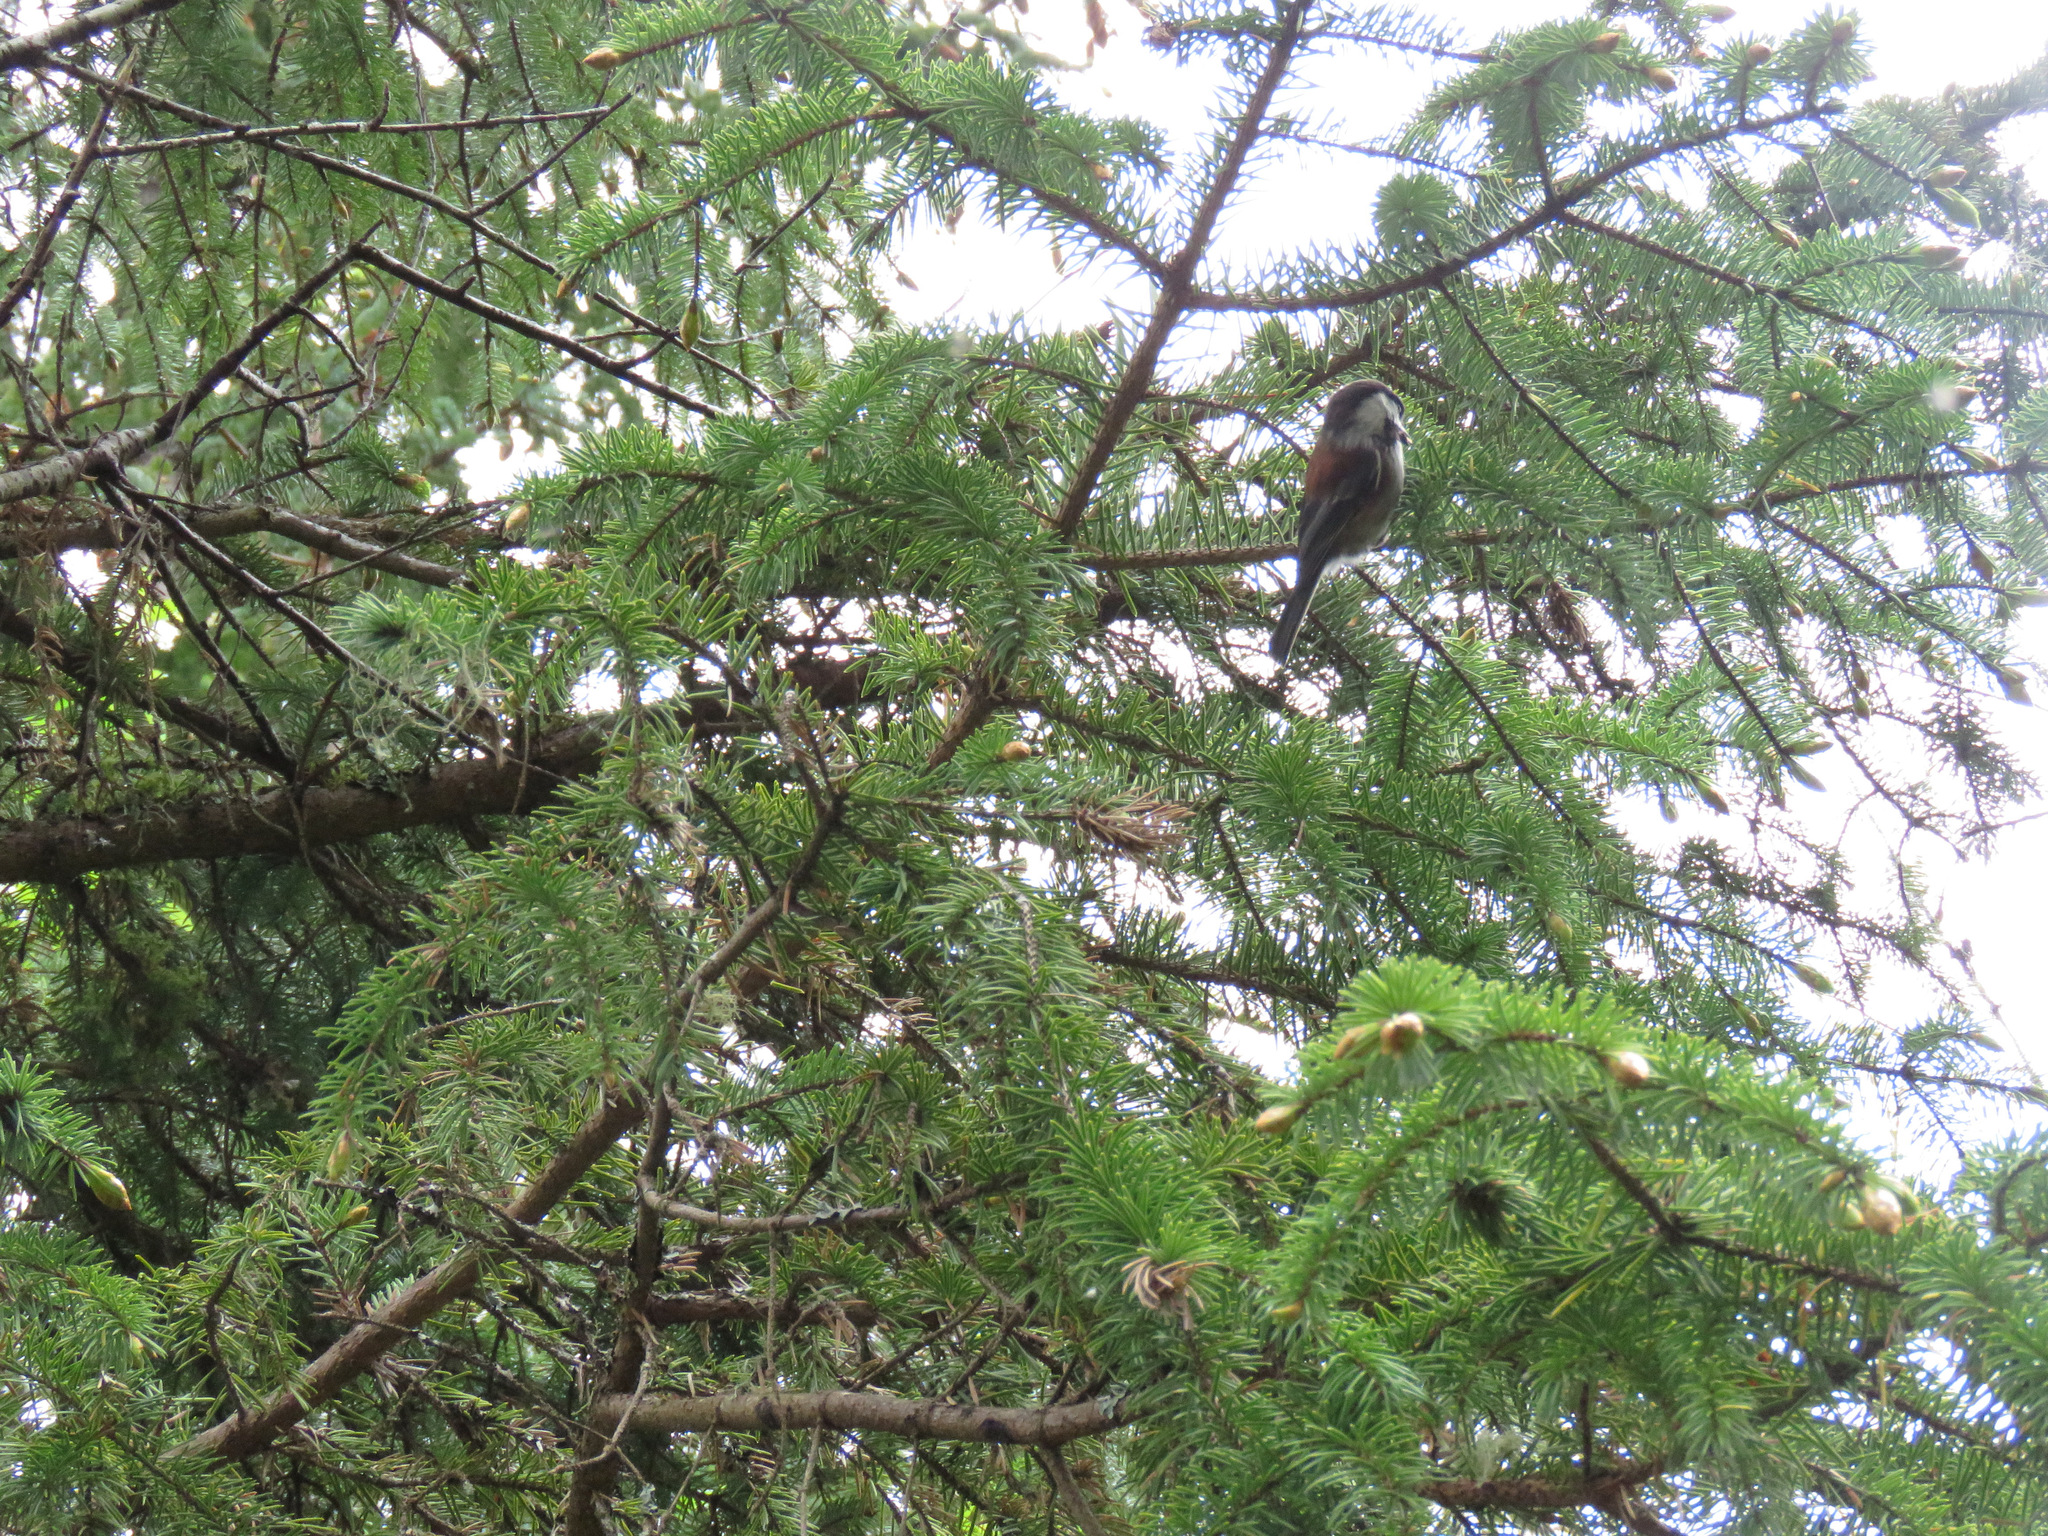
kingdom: Animalia
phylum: Chordata
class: Aves
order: Passeriformes
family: Paridae
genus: Poecile
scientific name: Poecile rufescens
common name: Chestnut-backed chickadee
